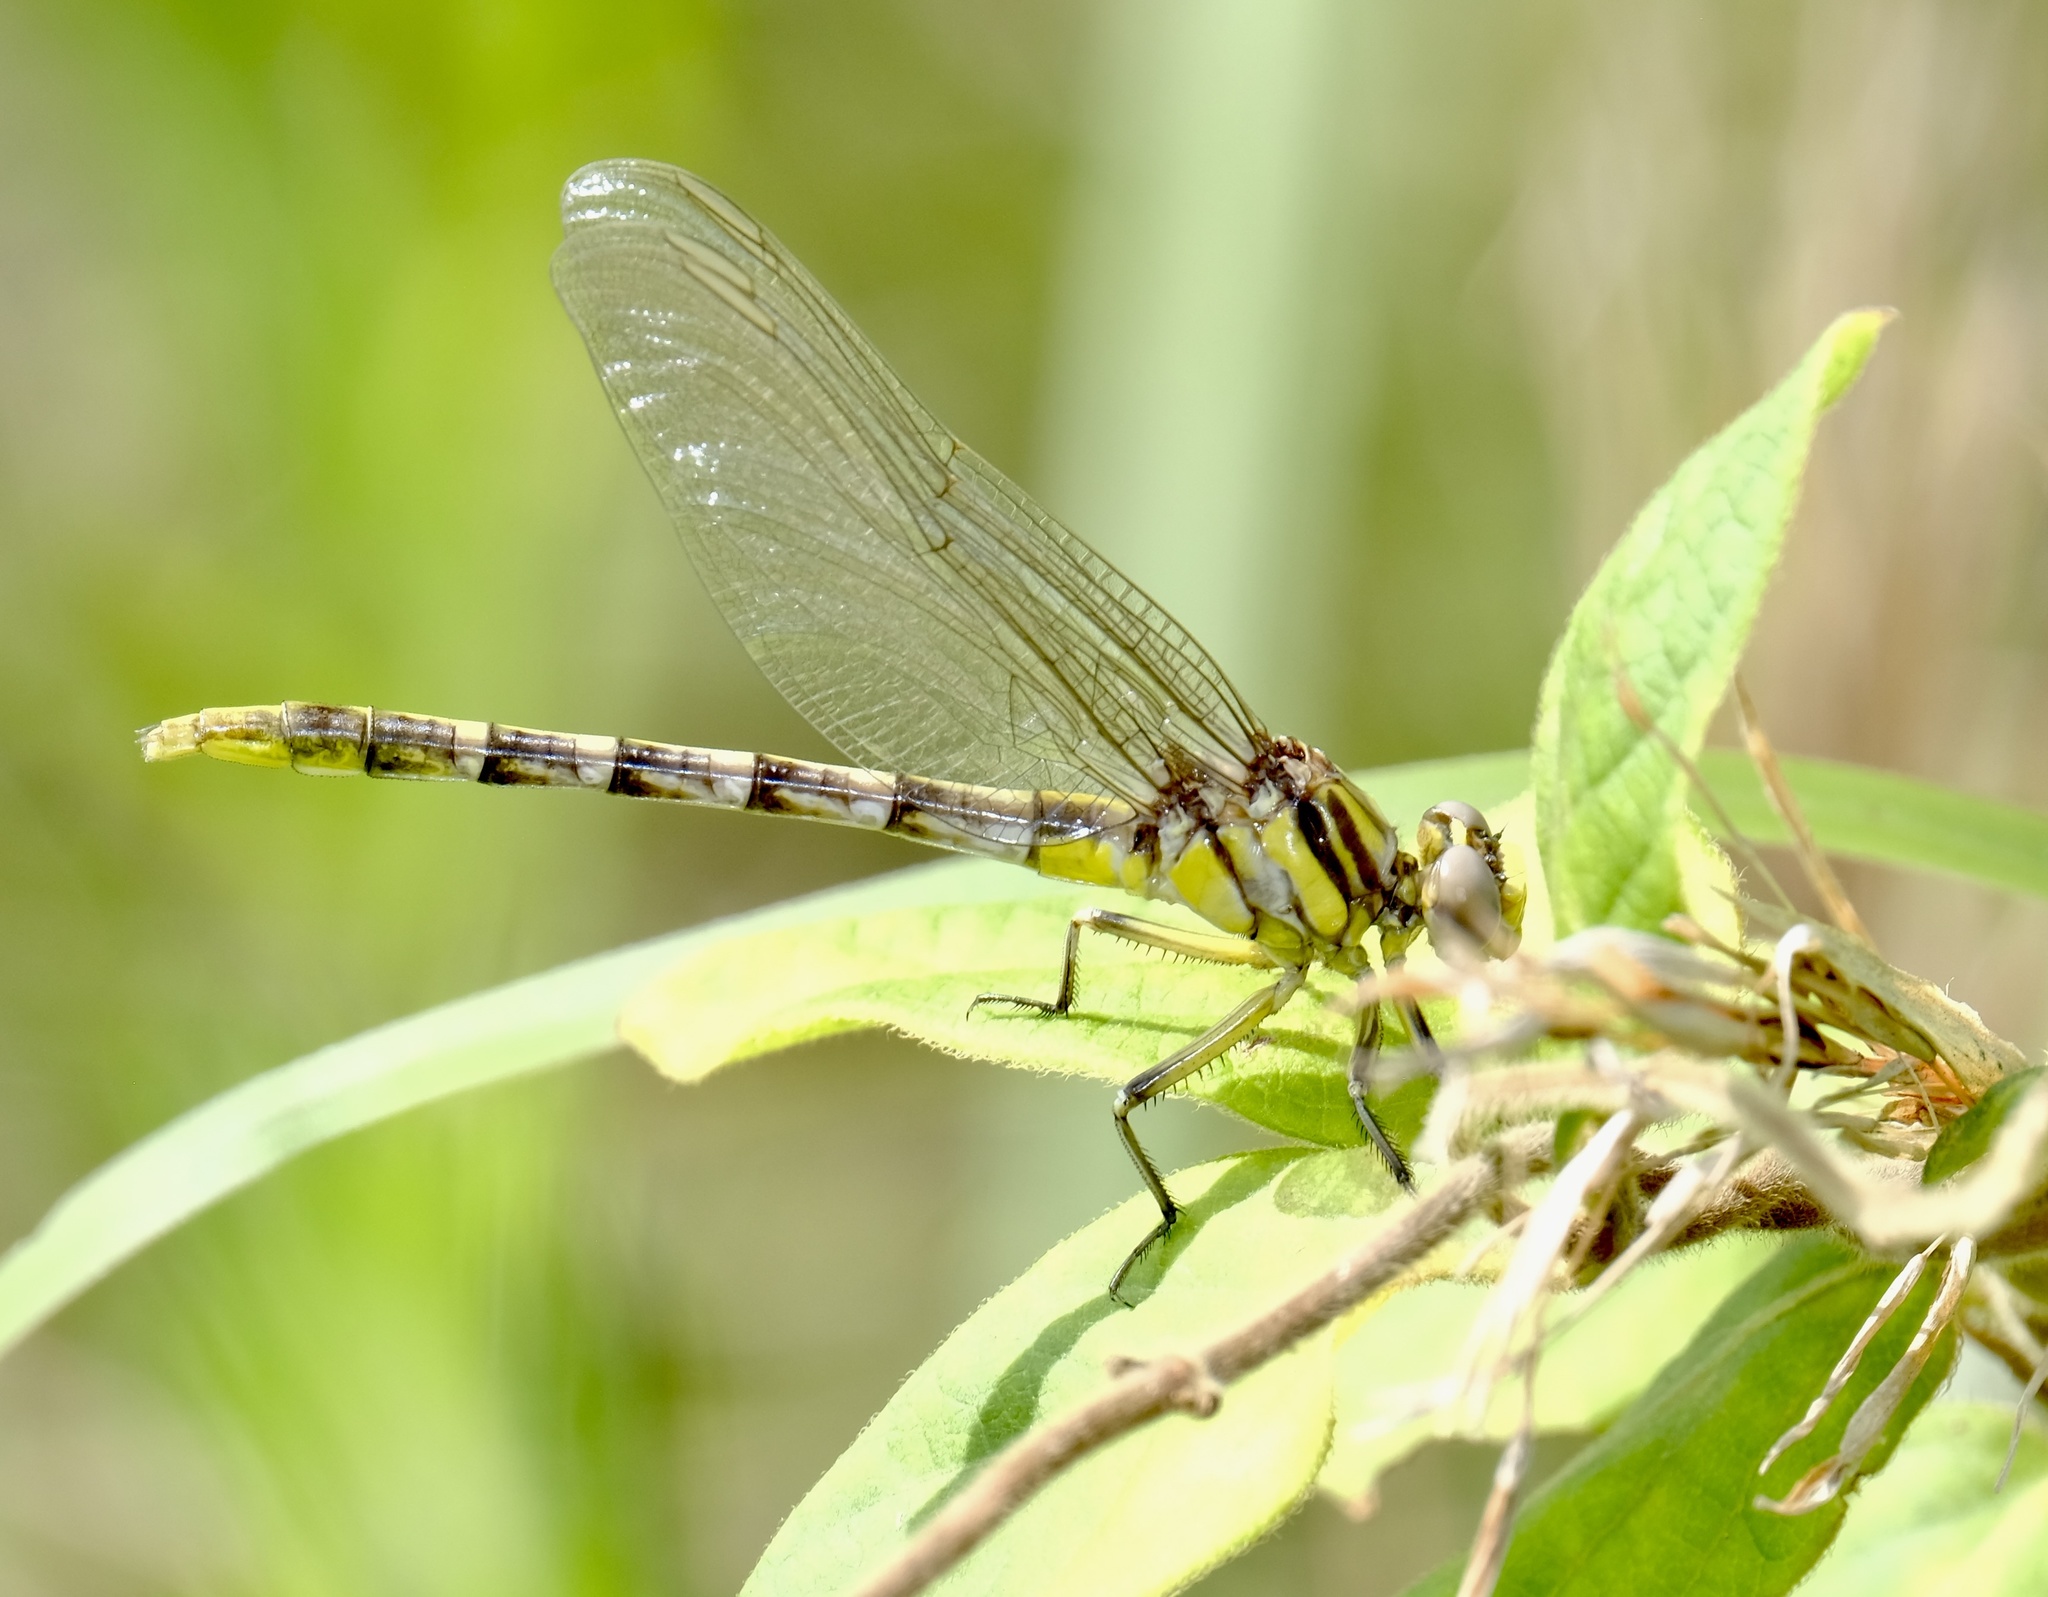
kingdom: Animalia
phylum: Arthropoda
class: Insecta
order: Odonata
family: Gomphidae
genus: Phanogomphus
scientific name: Phanogomphus militaris
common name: Sulphur-tipped clubtail
